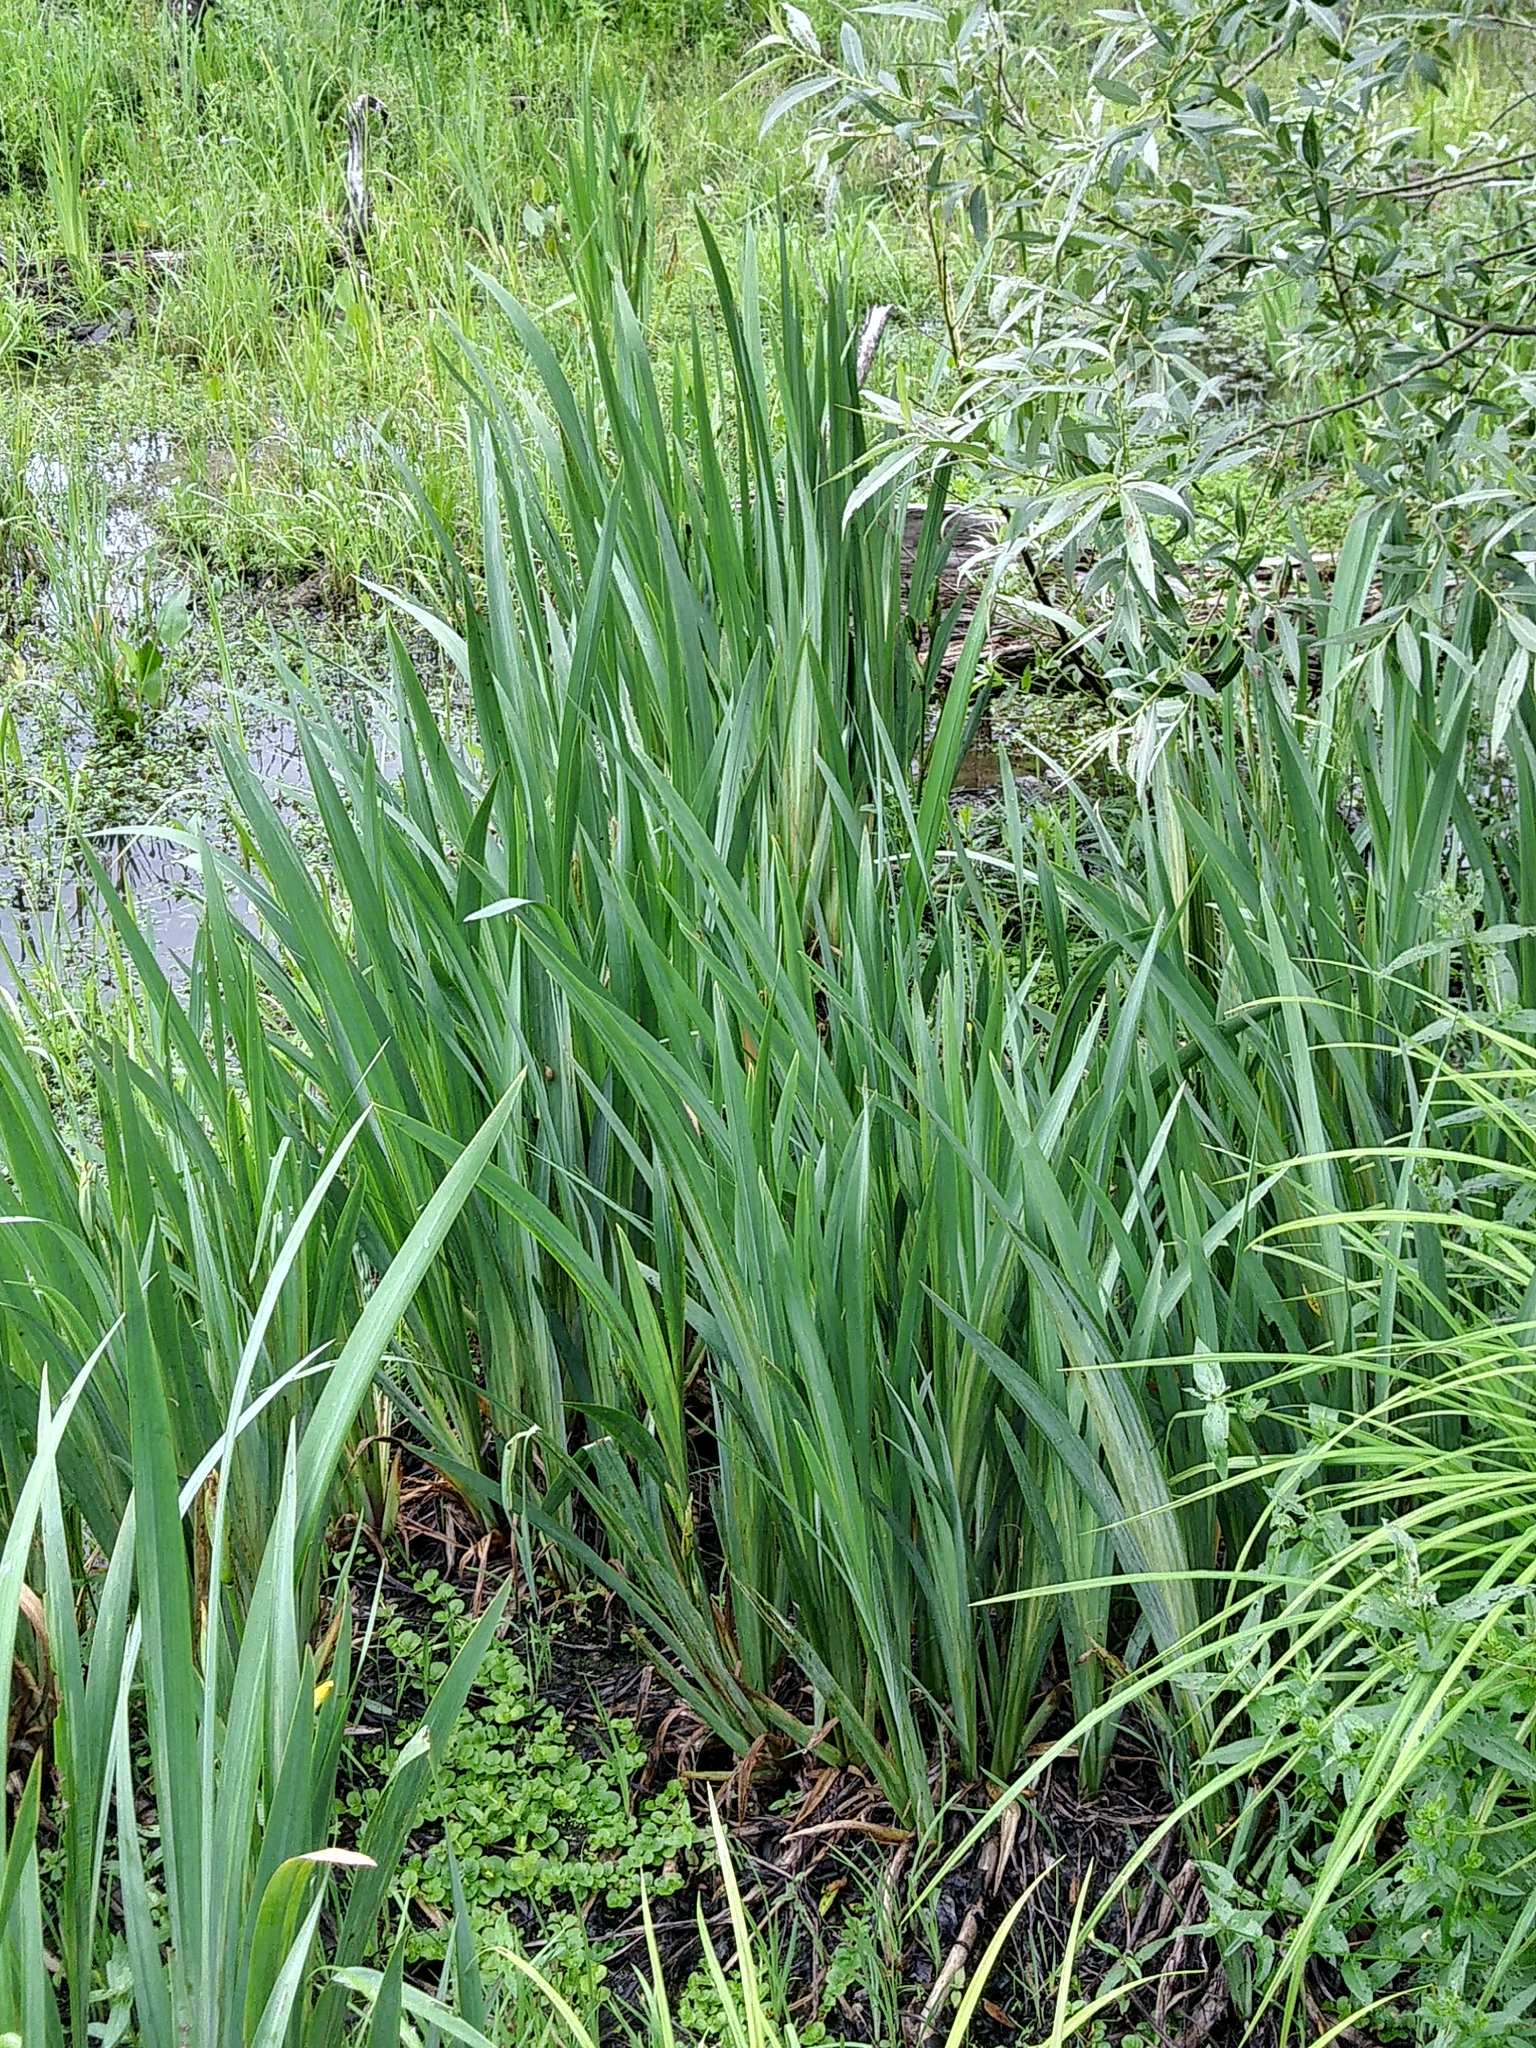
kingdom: Plantae
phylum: Tracheophyta
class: Liliopsida
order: Asparagales
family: Iridaceae
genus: Iris
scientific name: Iris pseudacorus
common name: Yellow flag
